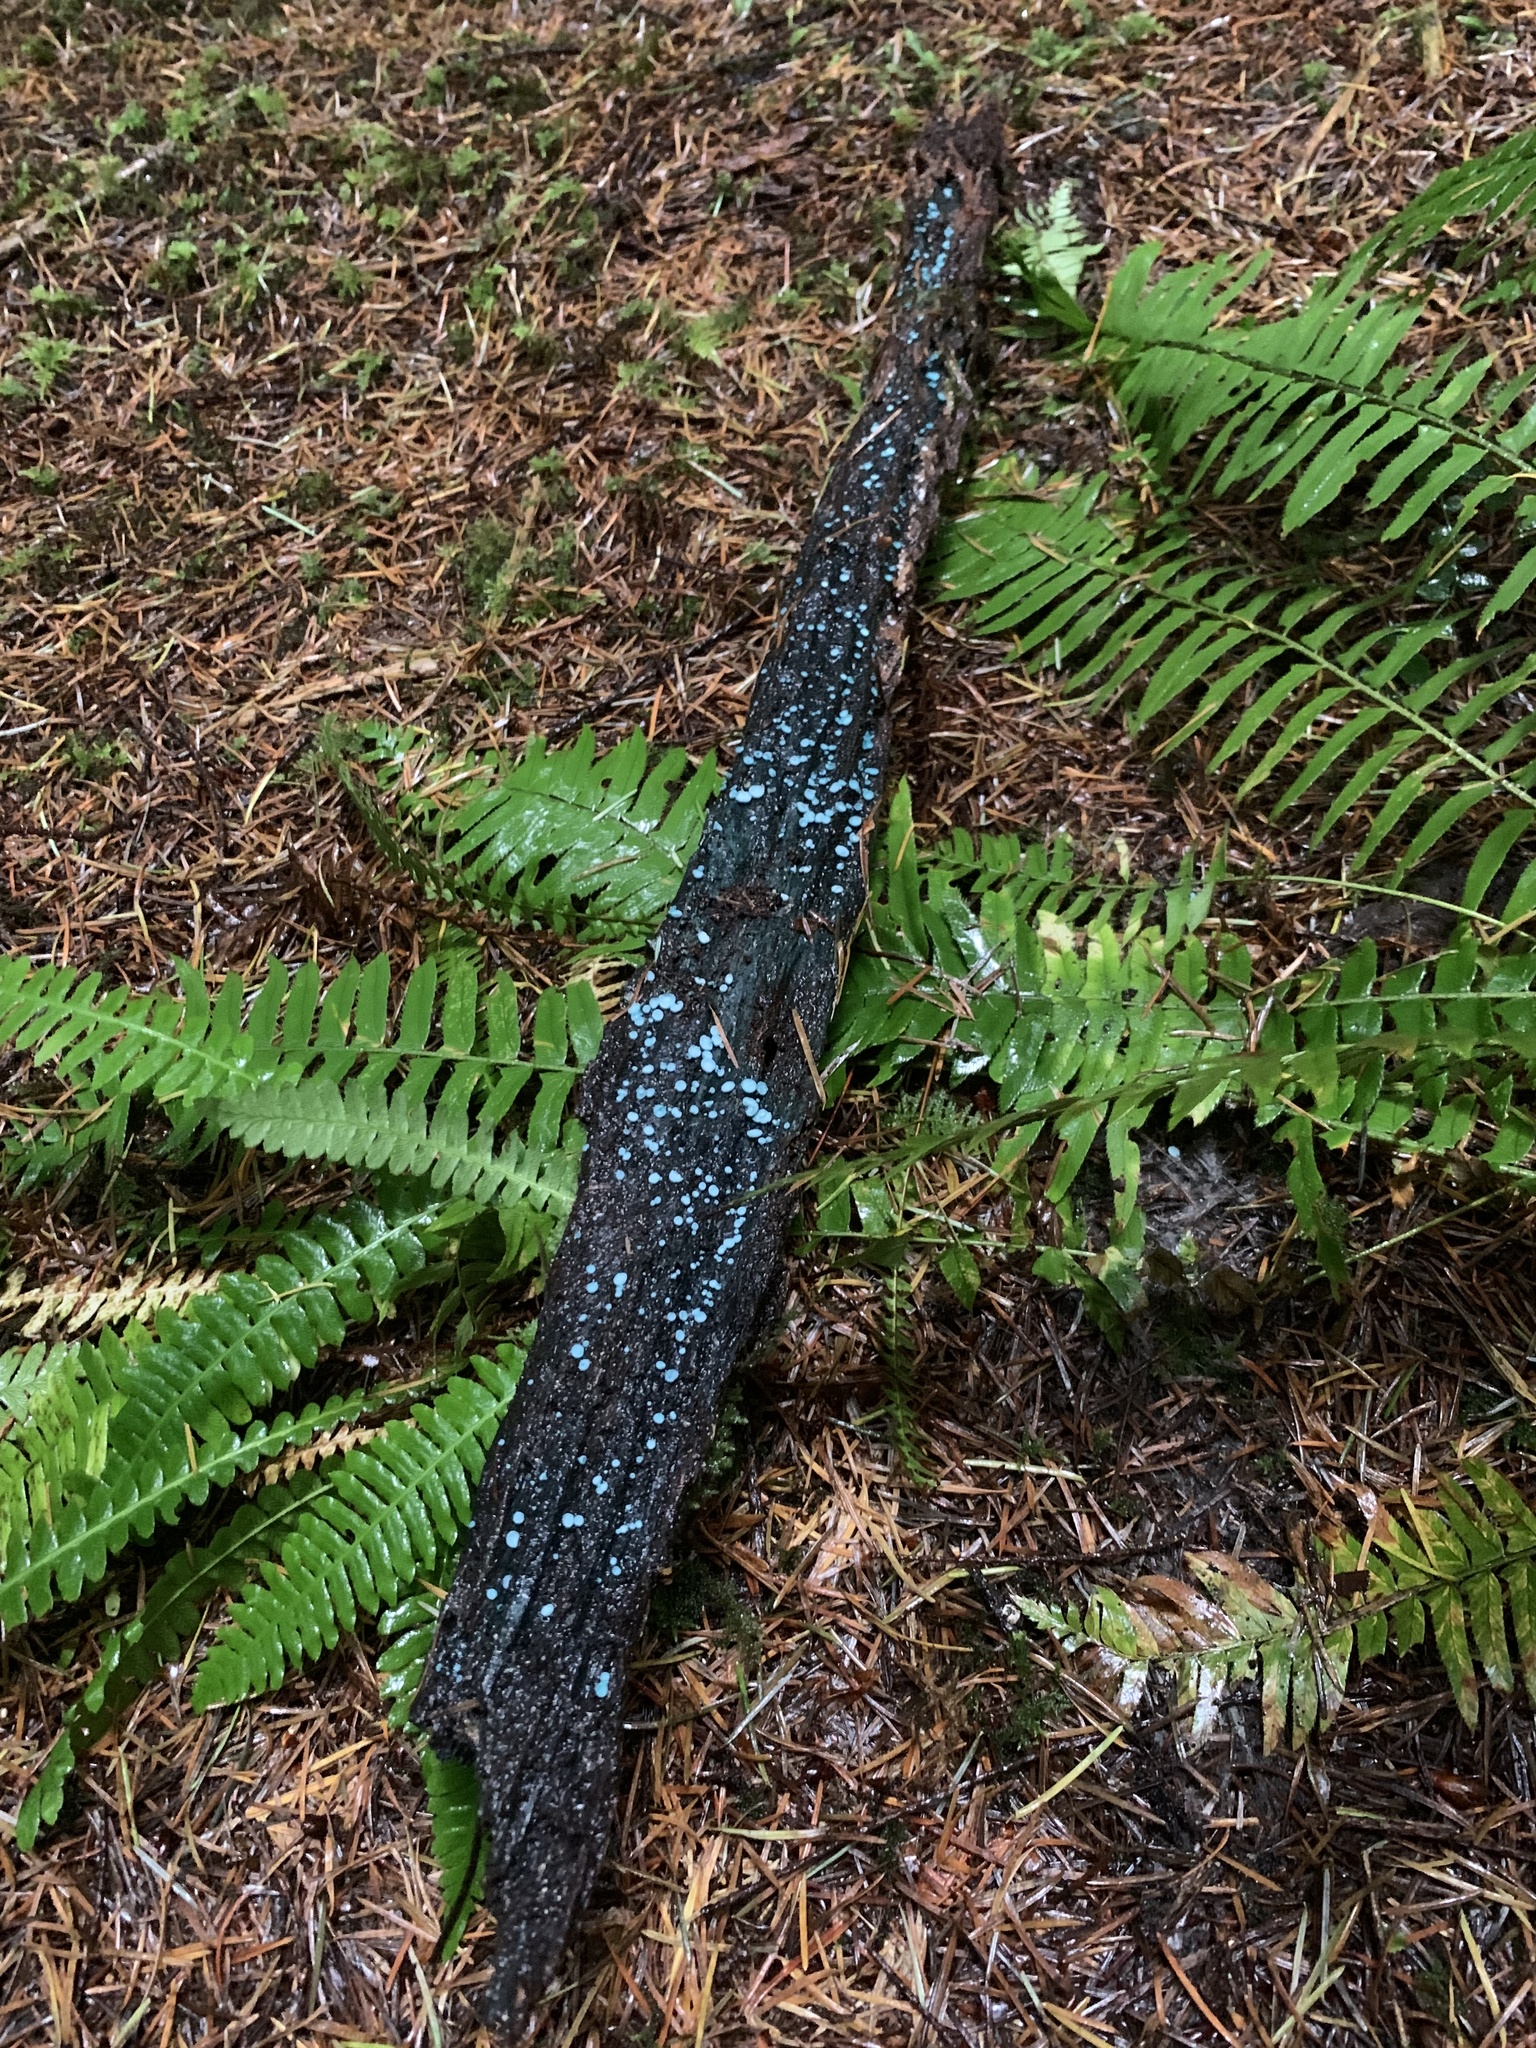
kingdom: Fungi
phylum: Ascomycota
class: Leotiomycetes
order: Helotiales
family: Chlorociboriaceae
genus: Chlorociboria
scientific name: Chlorociboria aeruginosa
